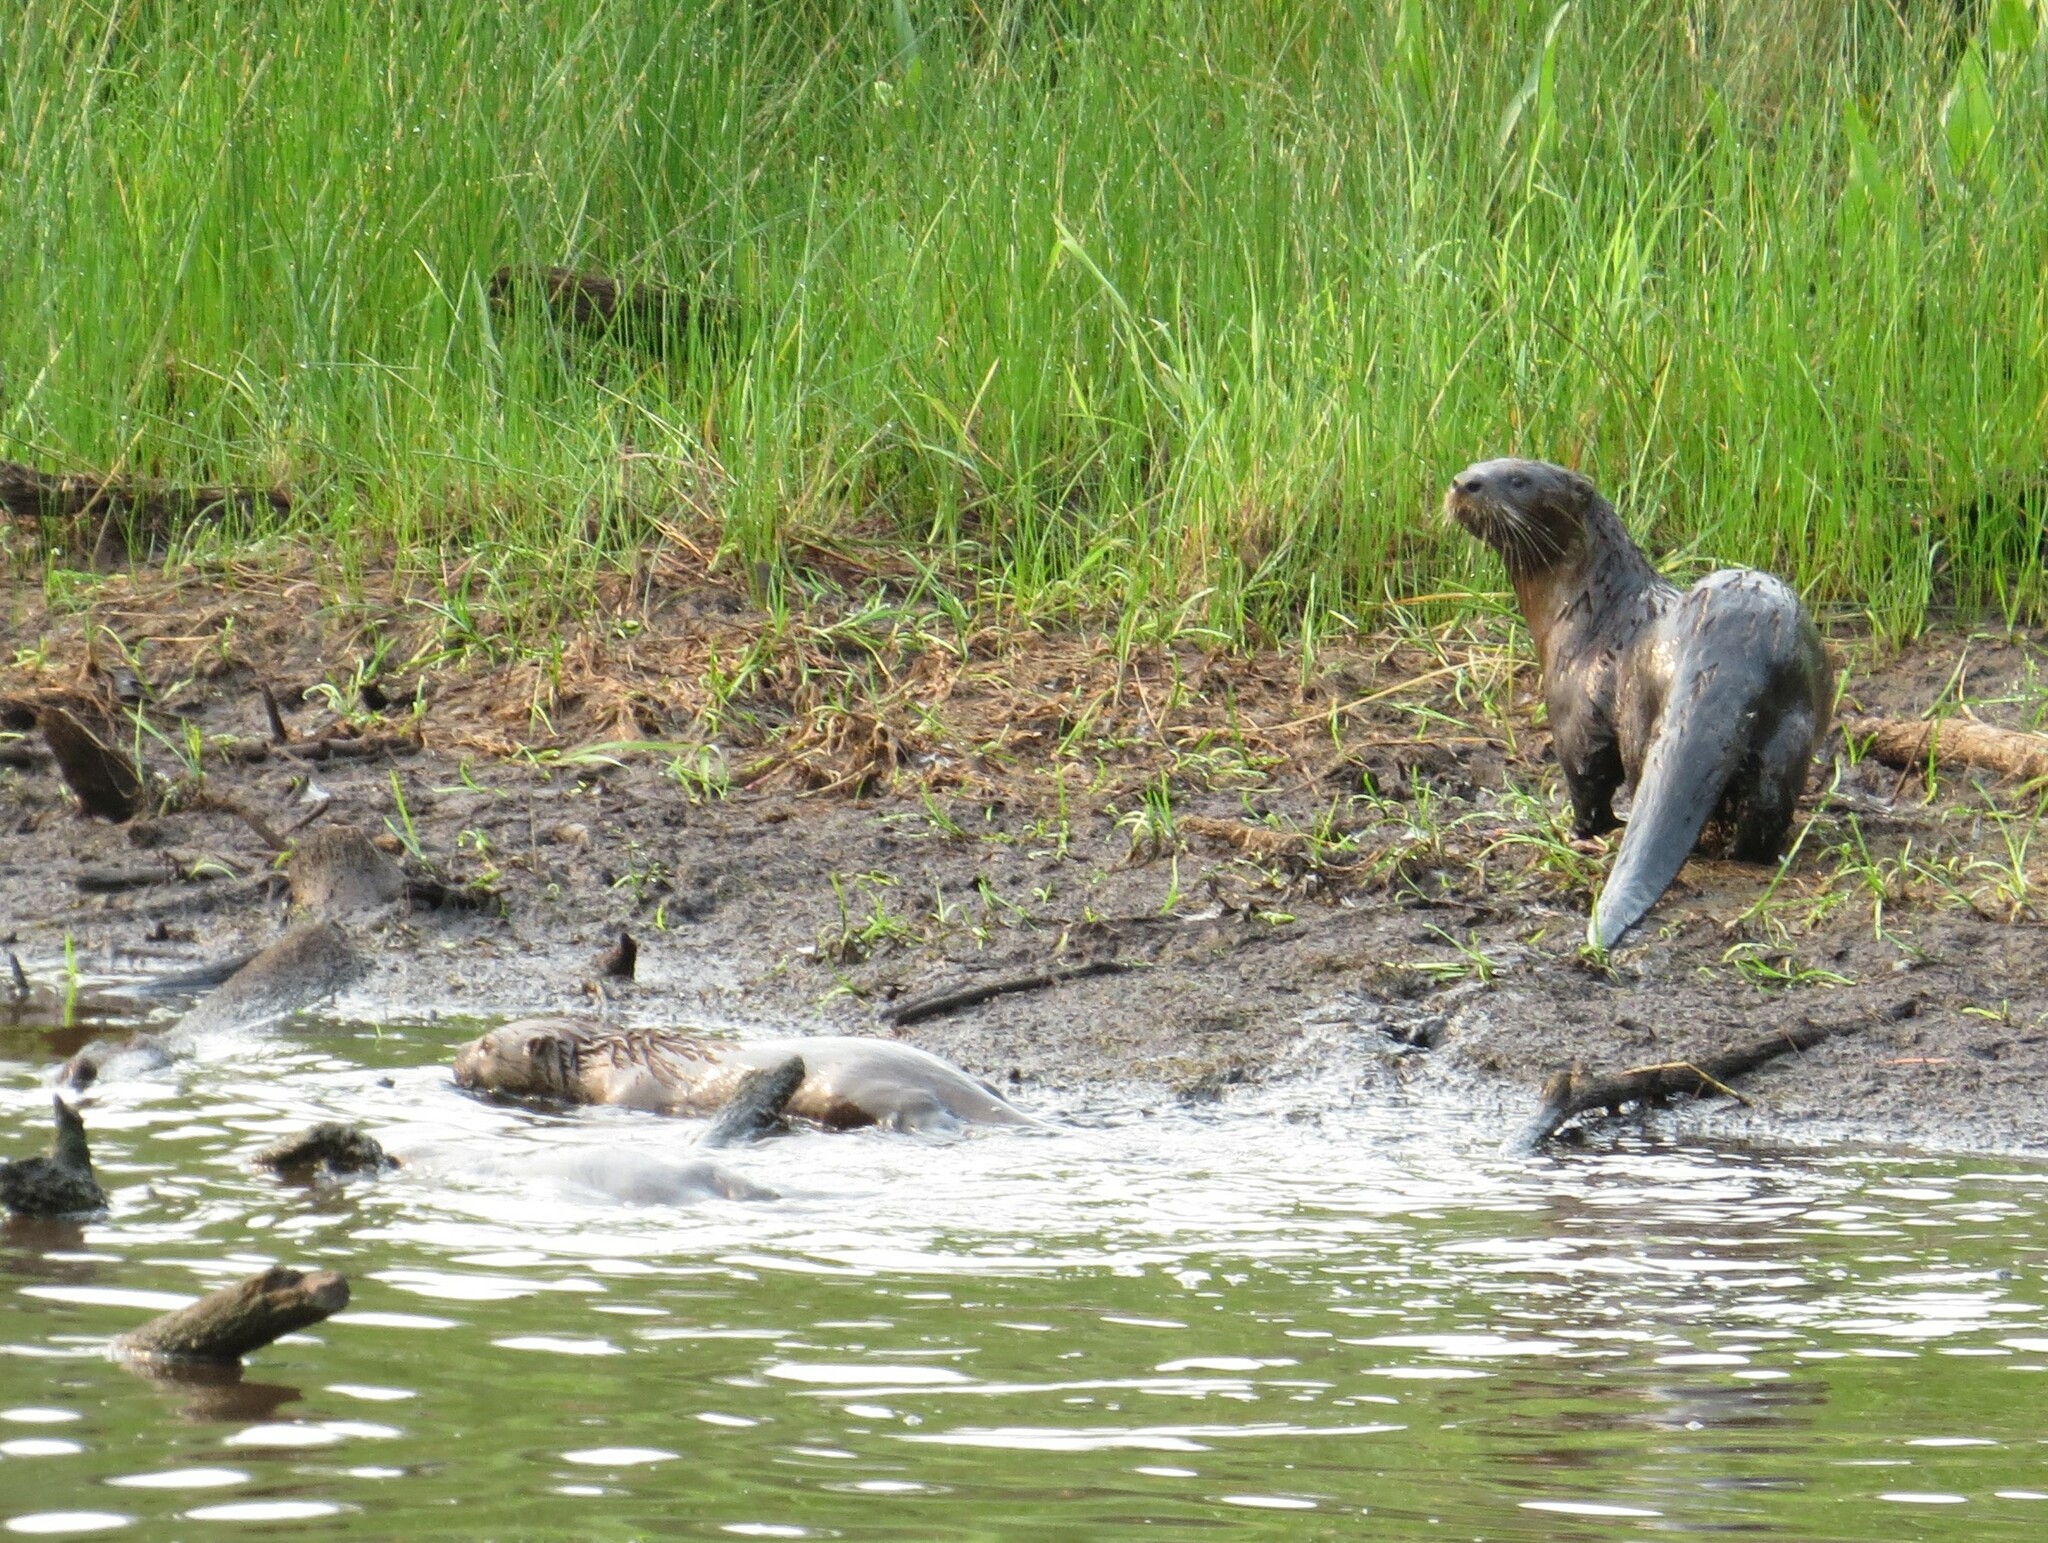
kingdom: Animalia
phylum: Chordata
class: Mammalia
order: Carnivora
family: Mustelidae
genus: Lontra
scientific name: Lontra canadensis
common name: North american river otter
